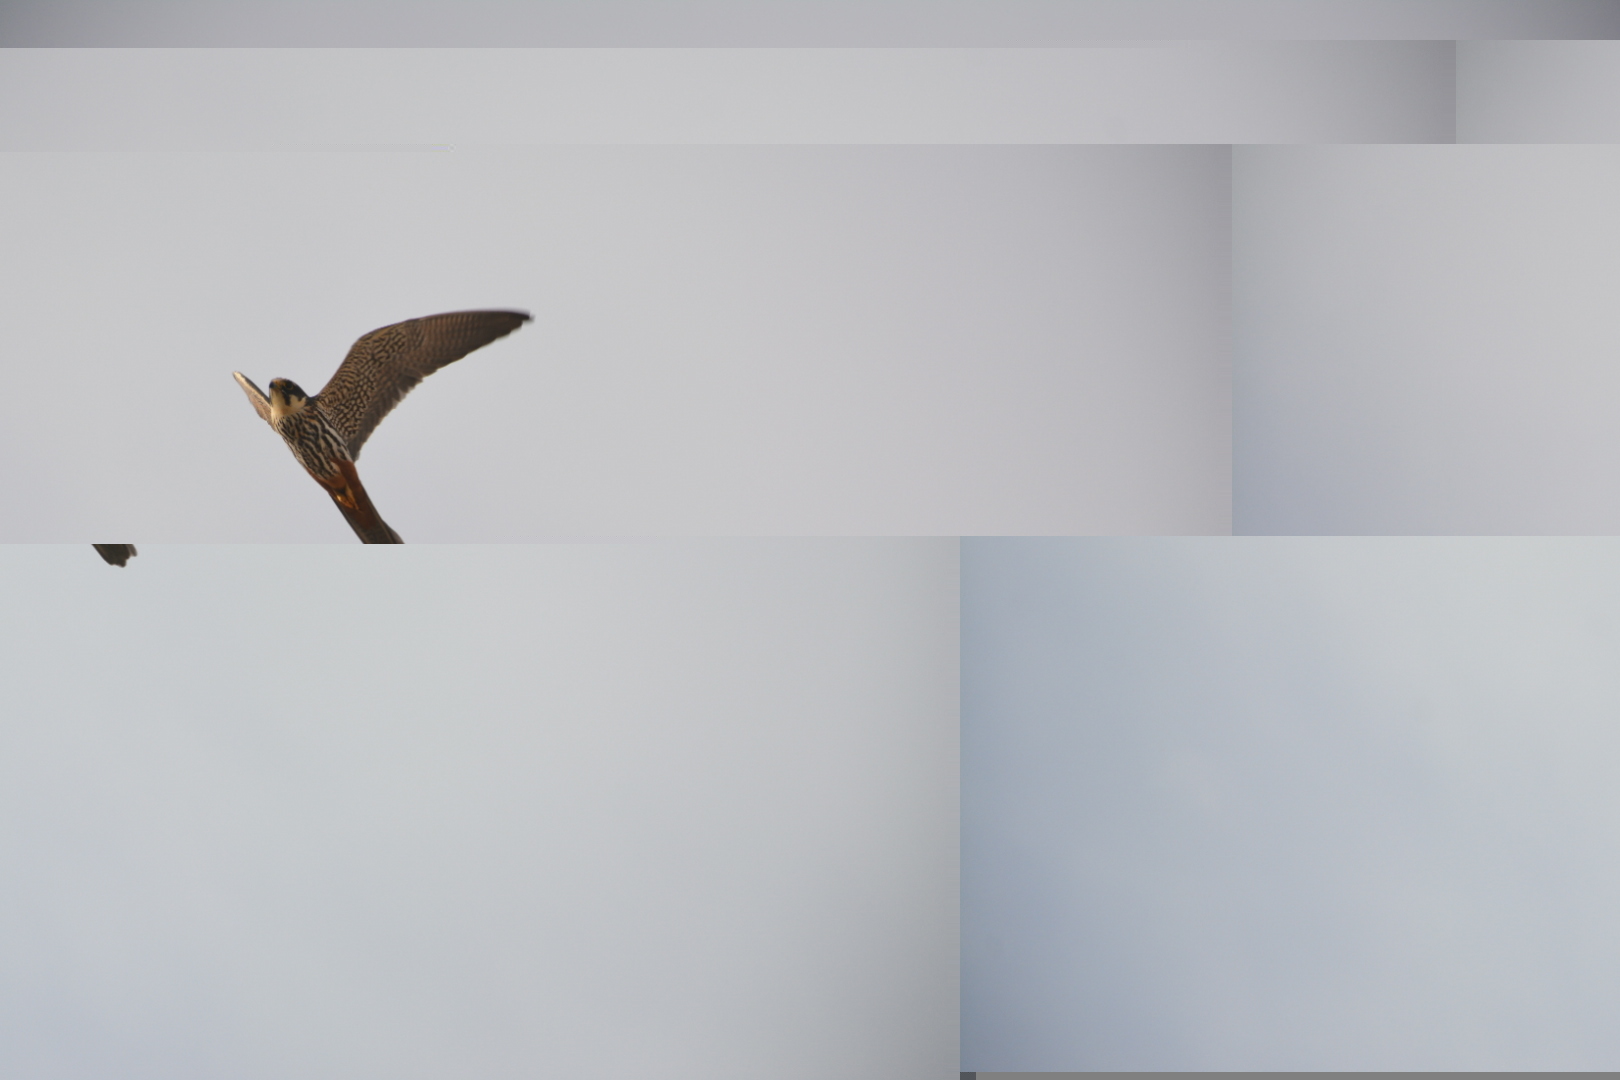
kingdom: Animalia
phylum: Chordata
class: Aves
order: Falconiformes
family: Falconidae
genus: Falco
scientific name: Falco subbuteo
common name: Eurasian hobby
